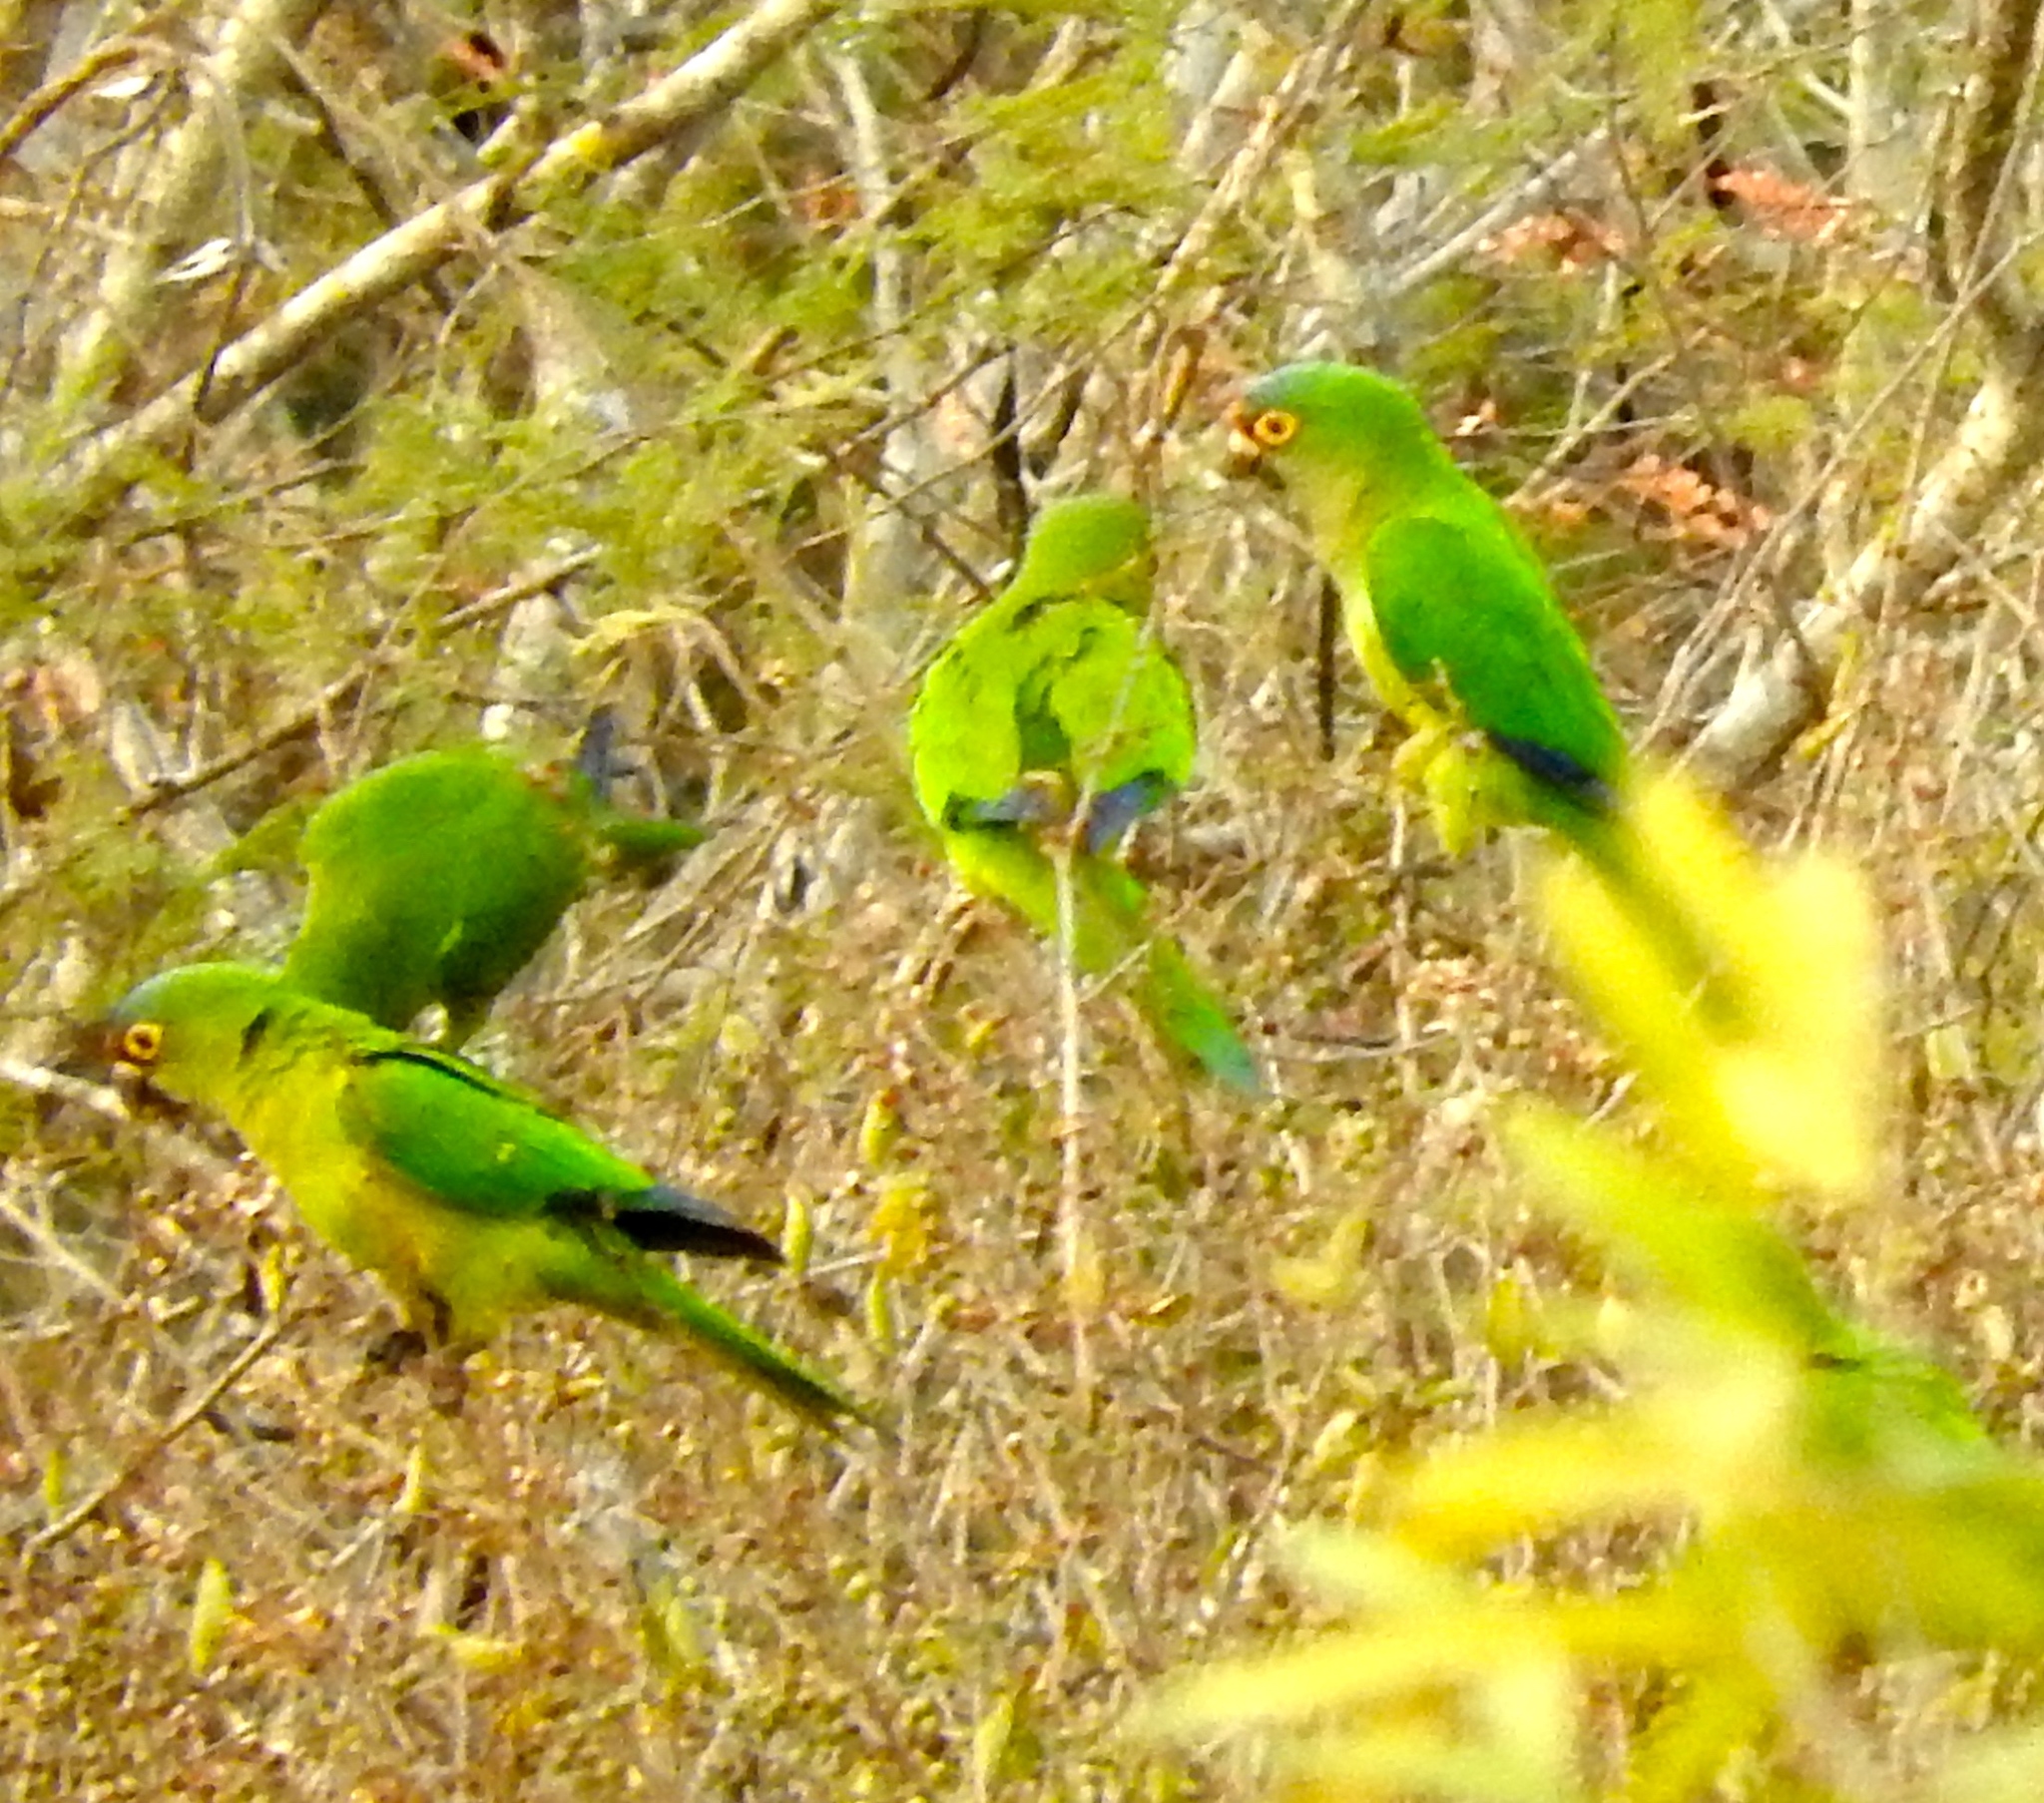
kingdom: Animalia
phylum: Chordata
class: Aves
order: Psittaciformes
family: Psittacidae
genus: Aratinga
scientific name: Aratinga canicularis
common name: Orange-fronted parakeet
